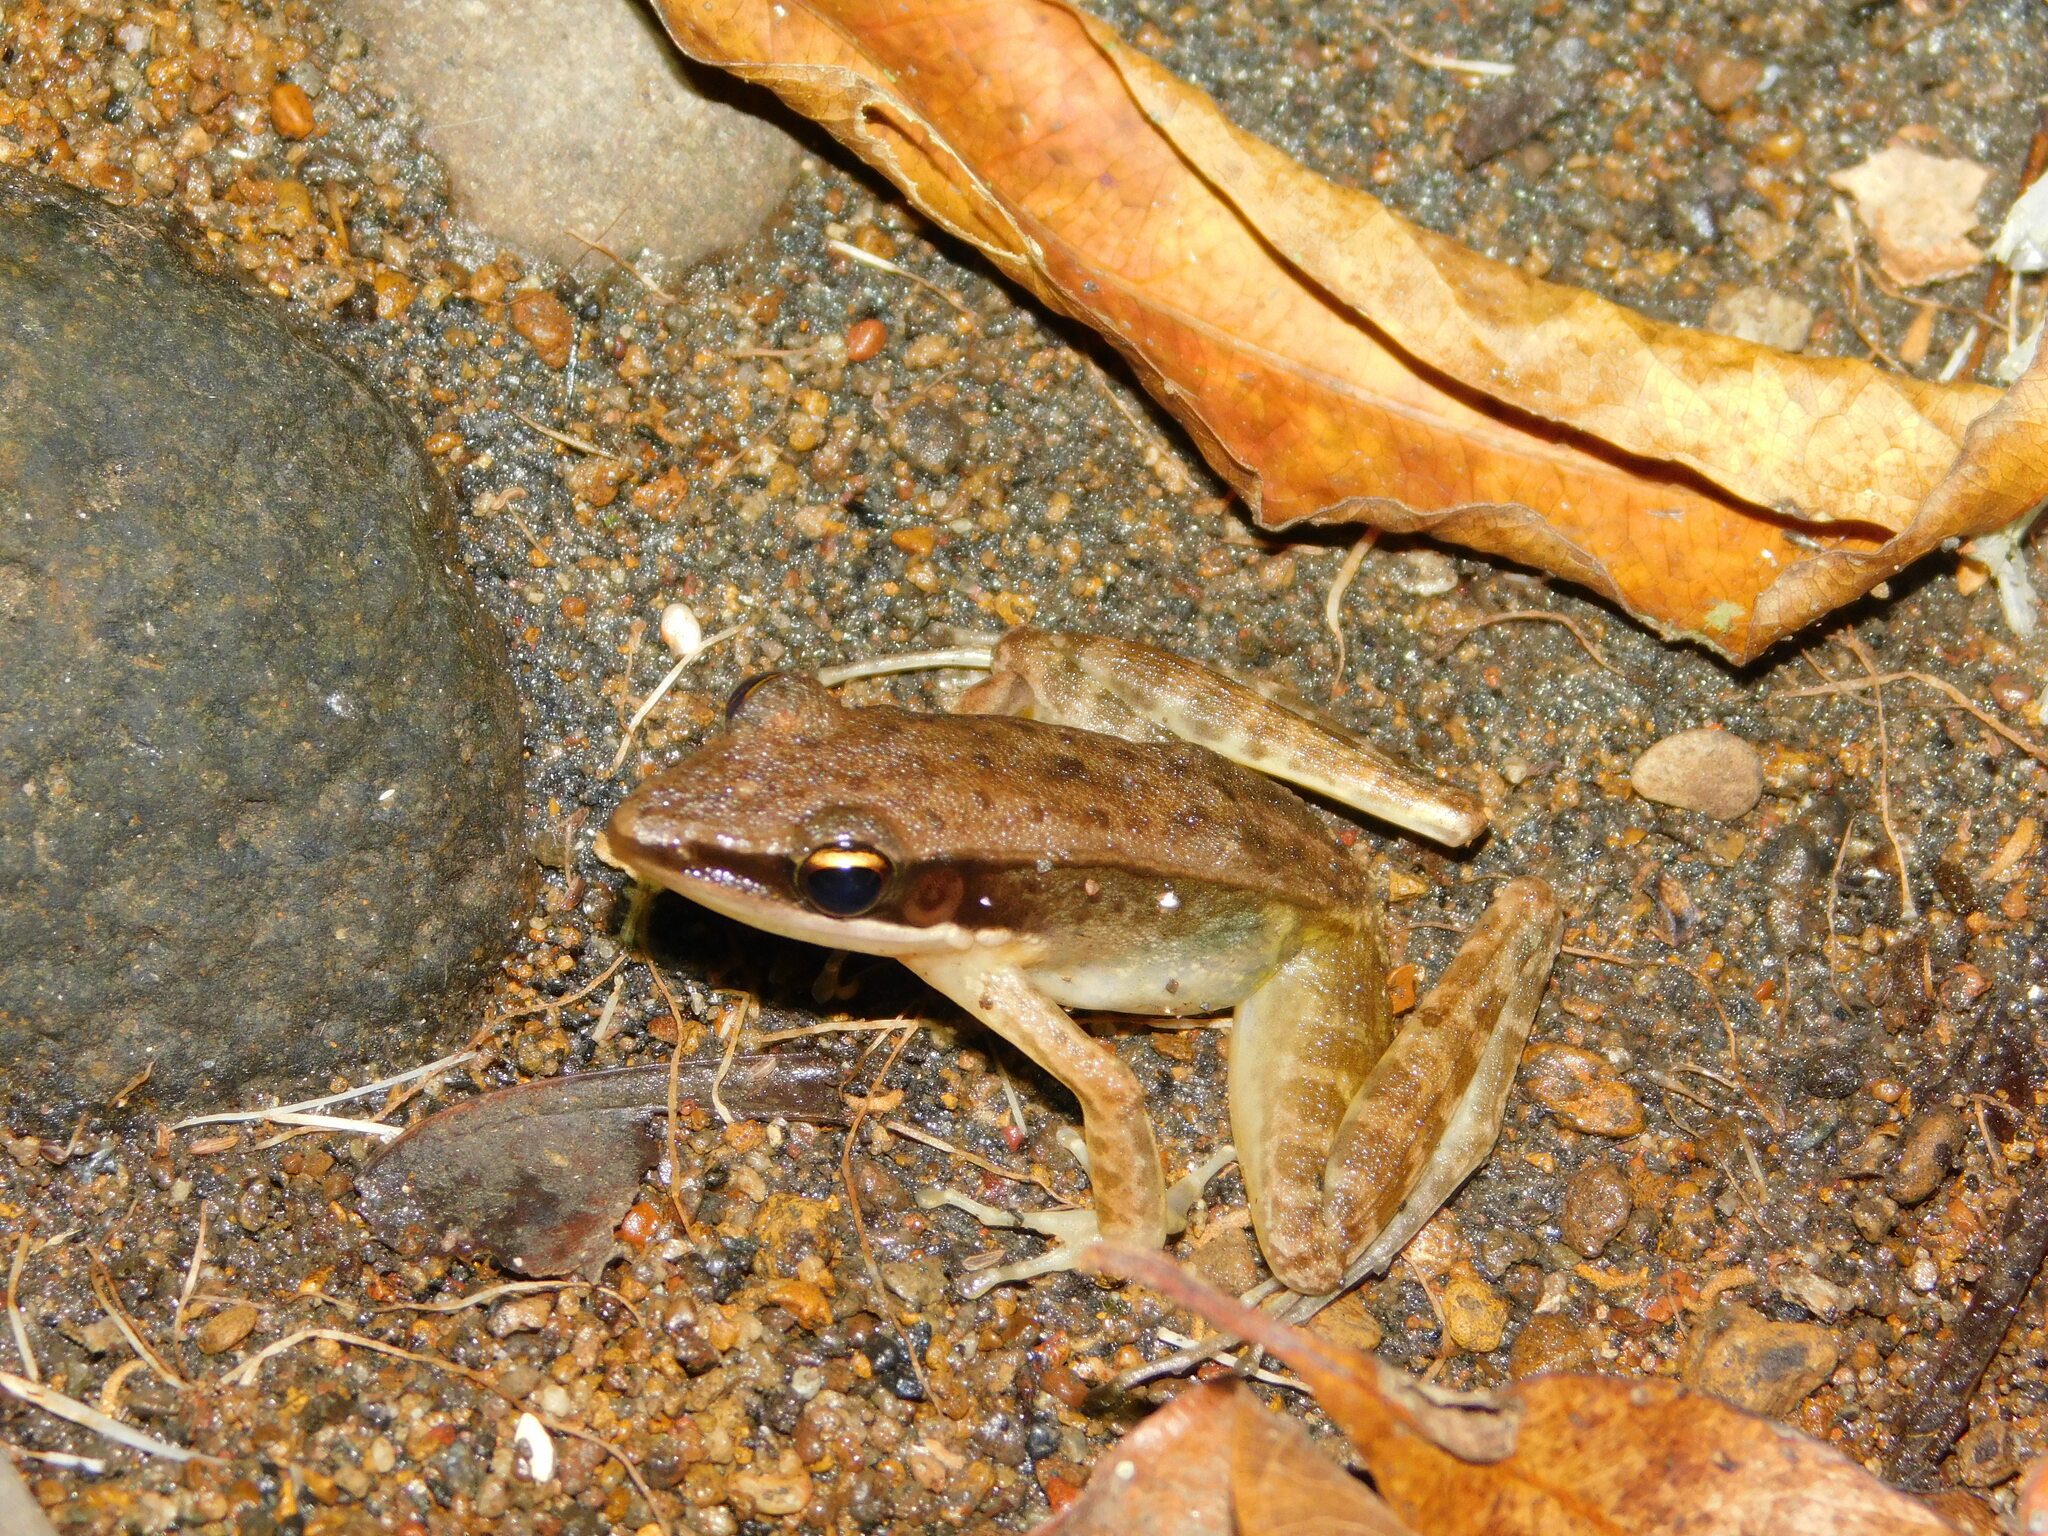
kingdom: Animalia
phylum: Chordata
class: Amphibia
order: Anura
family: Ranidae
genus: Bijurana
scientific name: Bijurana nicobariensis
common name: Cricket frog
